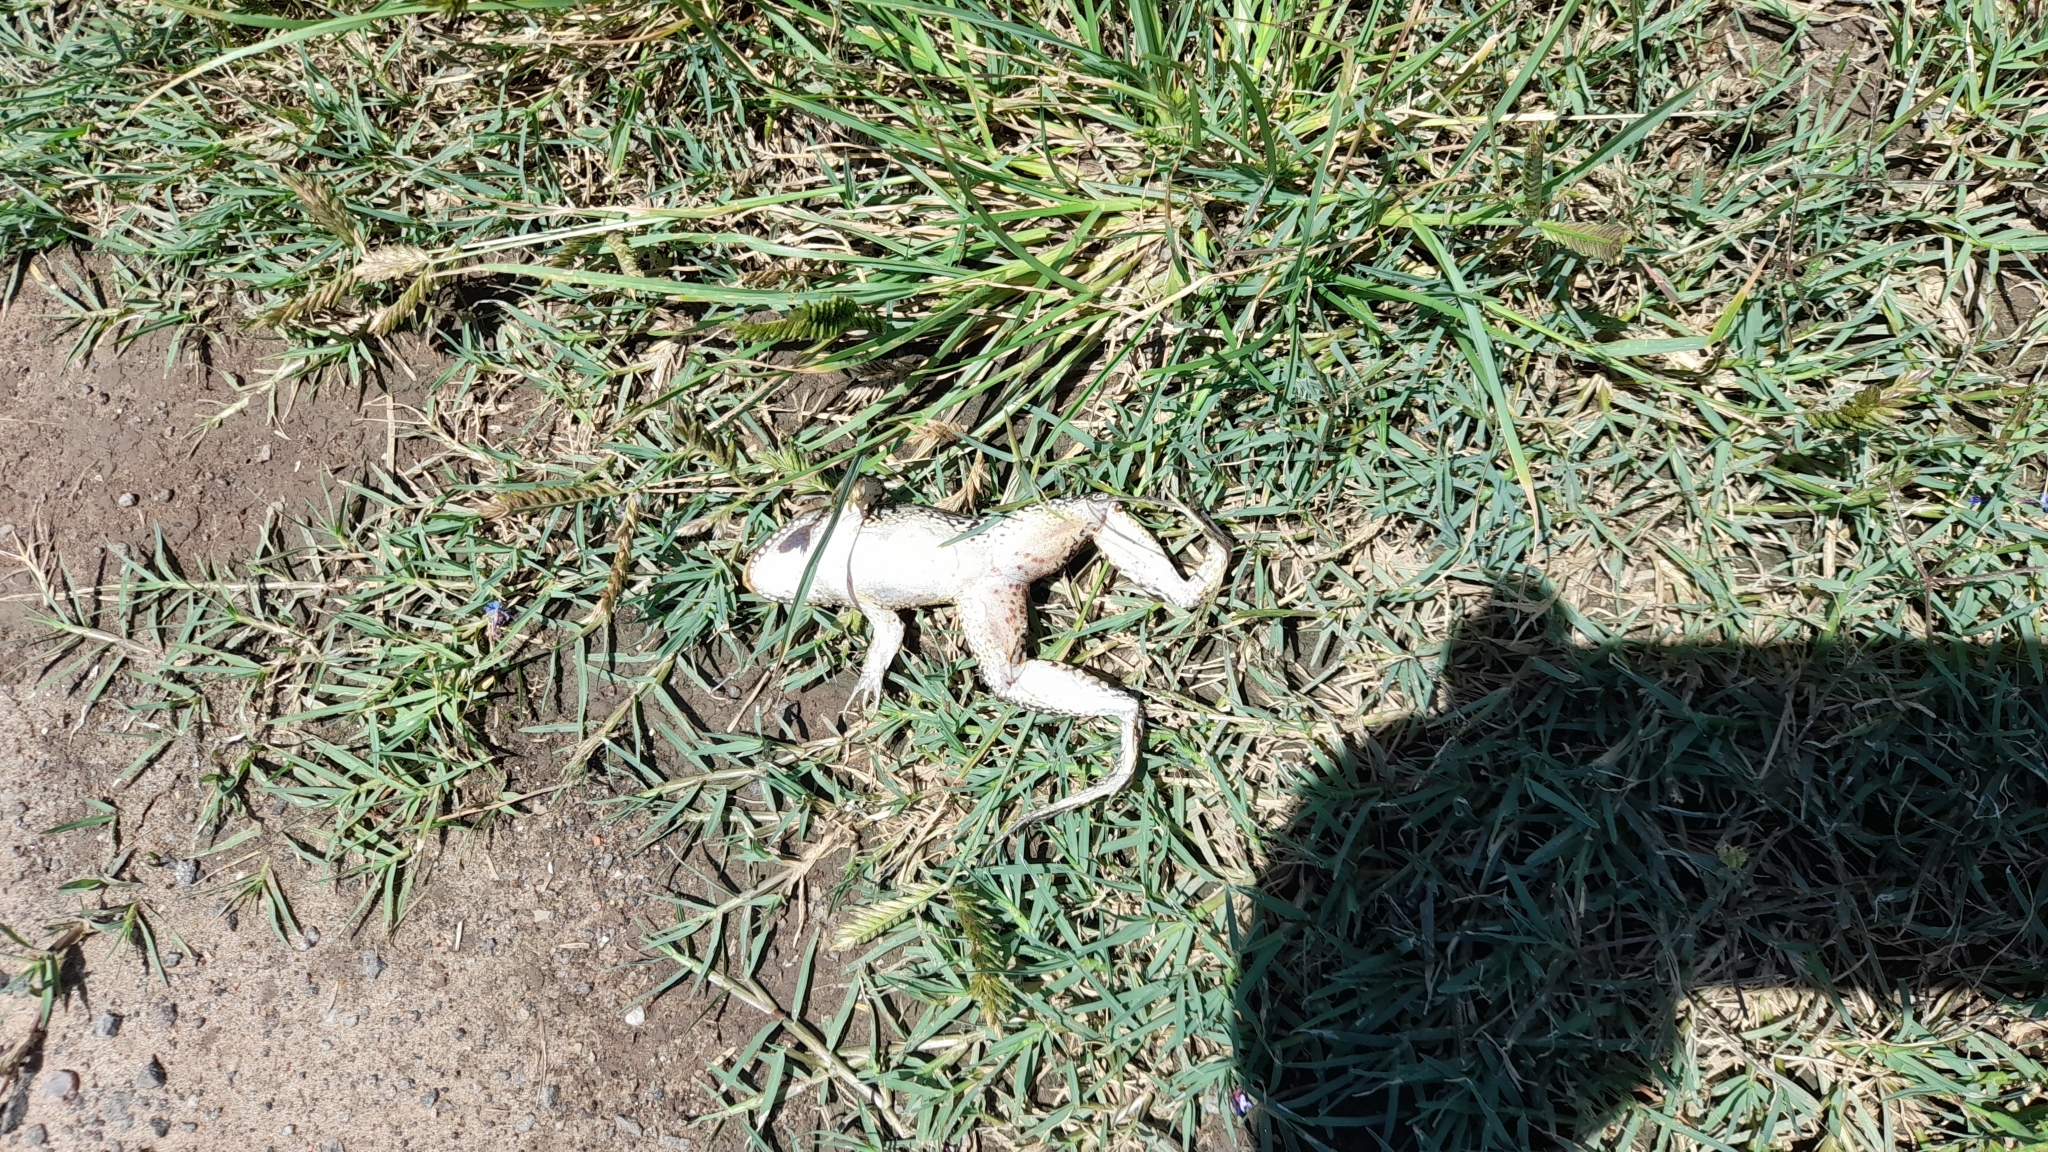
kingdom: Animalia
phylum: Chordata
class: Amphibia
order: Anura
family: Leptodactylidae
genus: Leptodactylus
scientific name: Leptodactylus luctator
